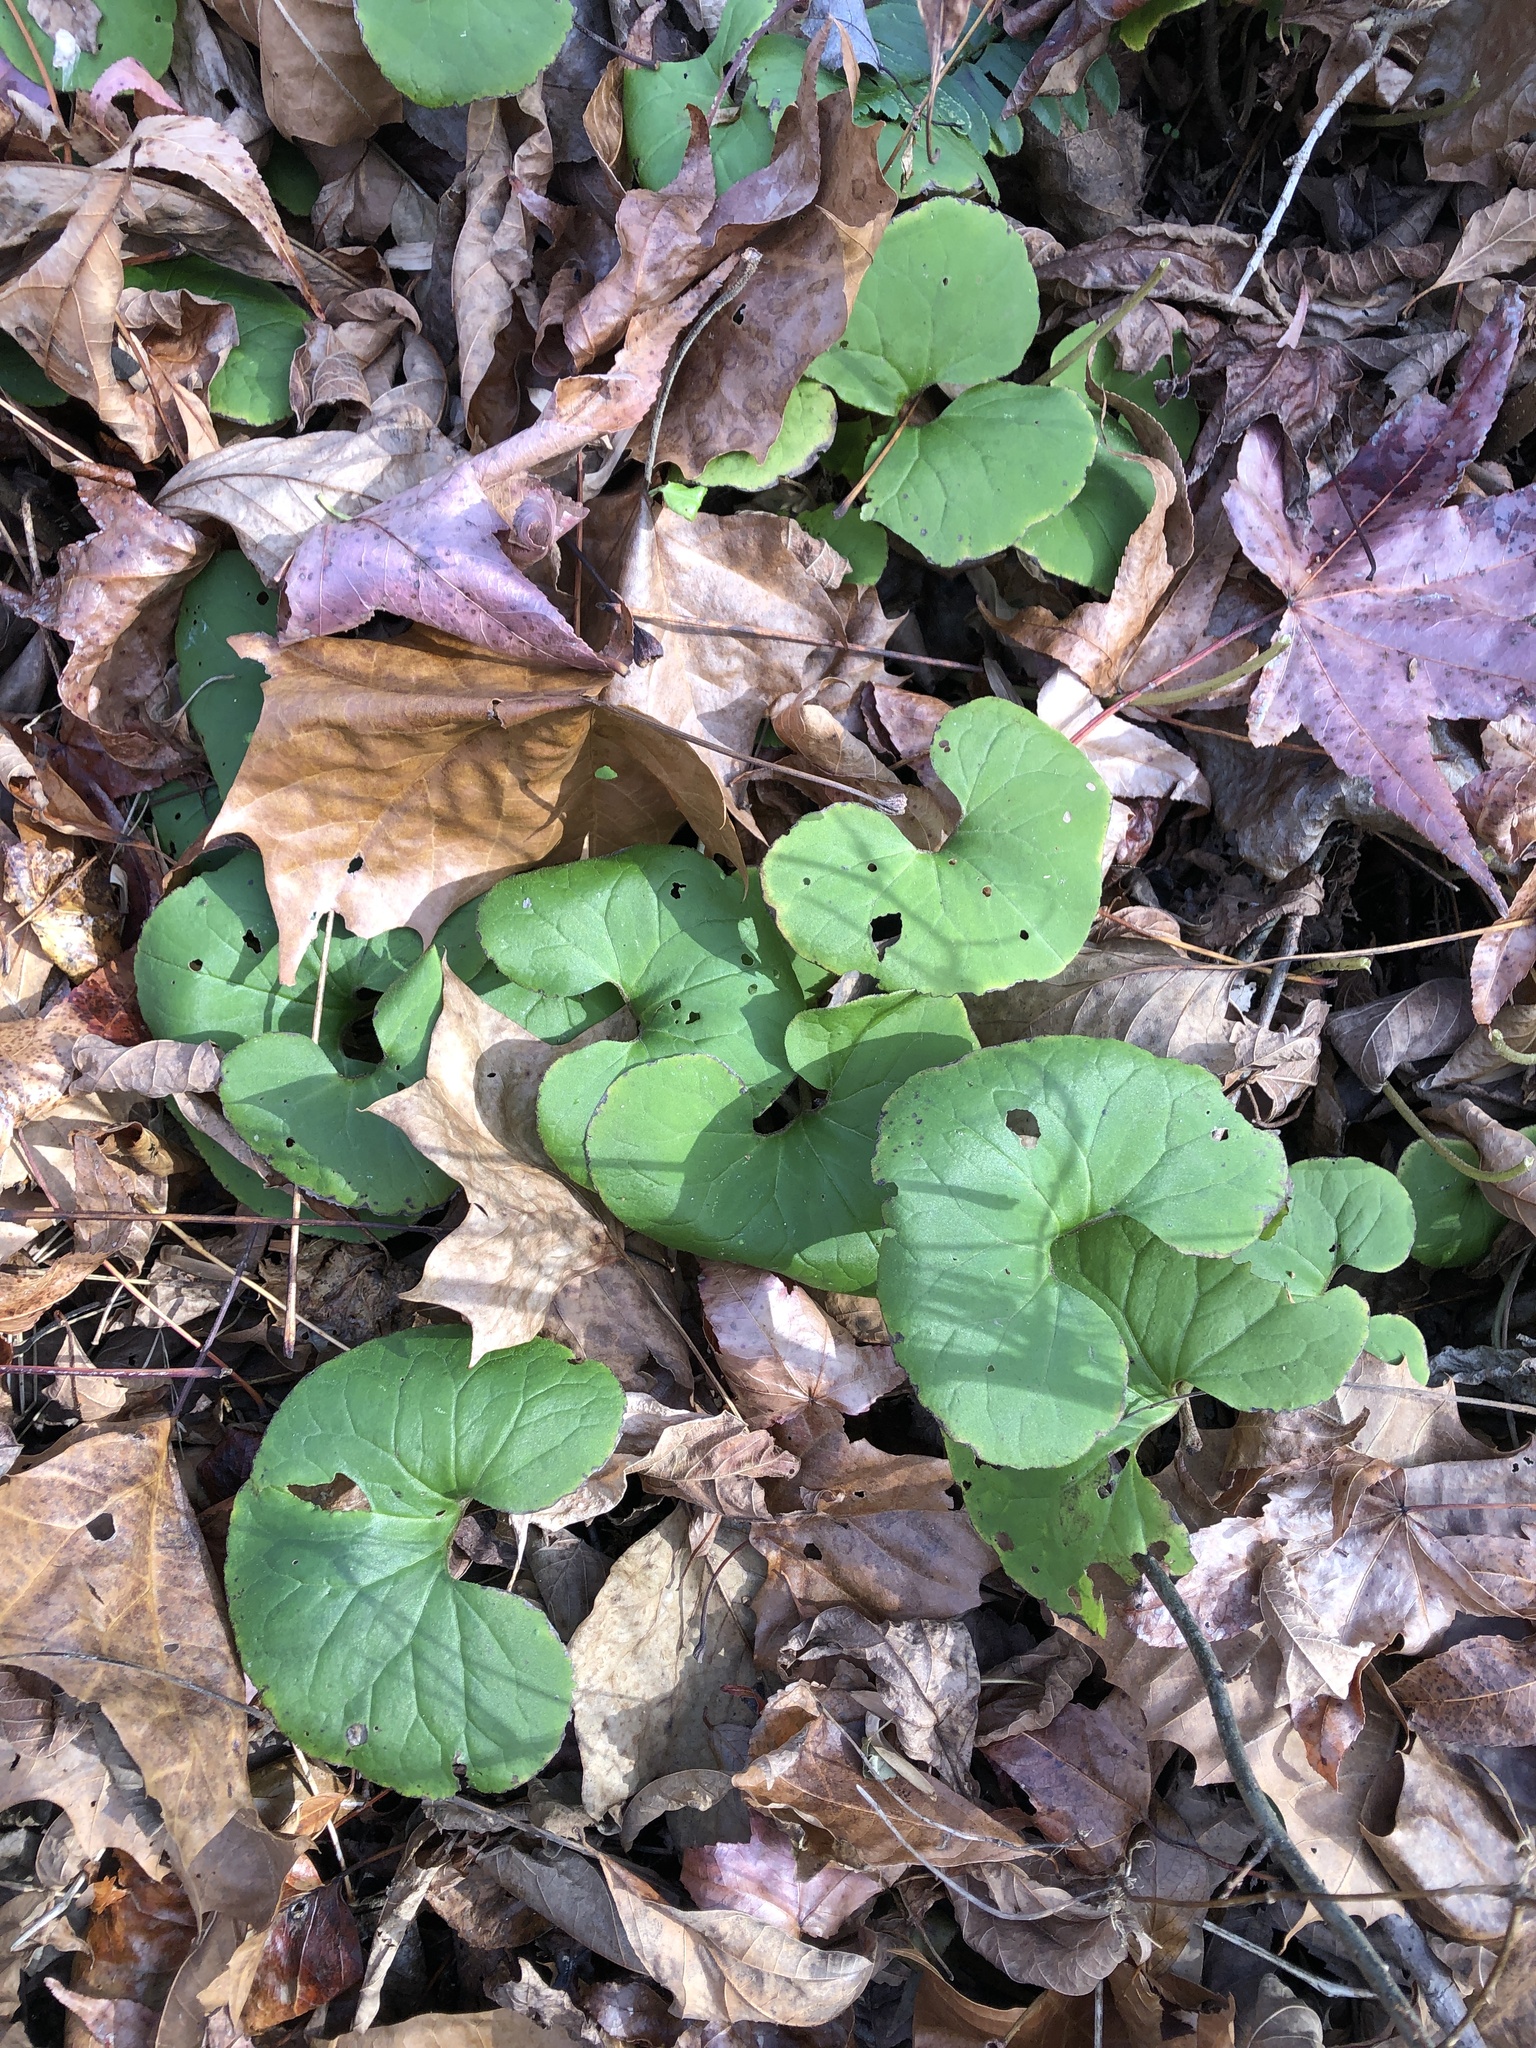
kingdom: Plantae
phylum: Tracheophyta
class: Magnoliopsida
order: Piperales
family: Aristolochiaceae
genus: Asarum
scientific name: Asarum canadense
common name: Wild ginger
